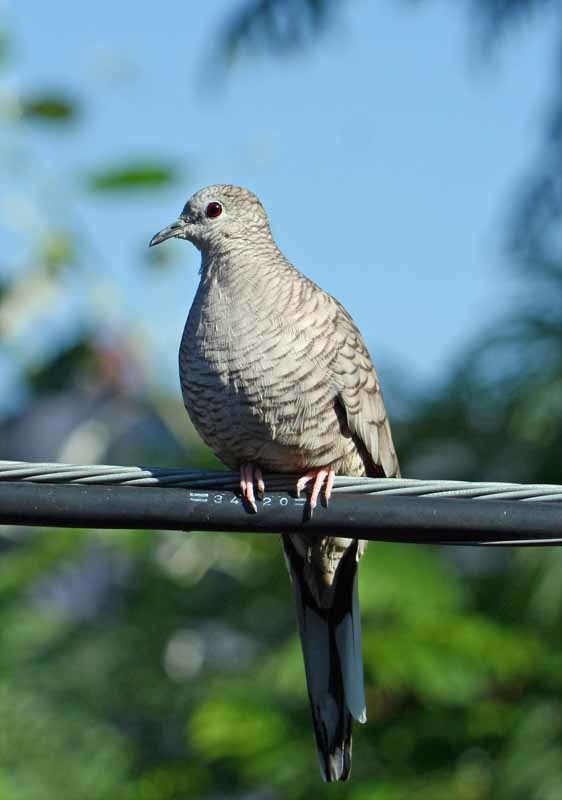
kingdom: Animalia
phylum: Chordata
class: Aves
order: Columbiformes
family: Columbidae
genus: Columbina
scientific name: Columbina inca
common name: Inca dove
